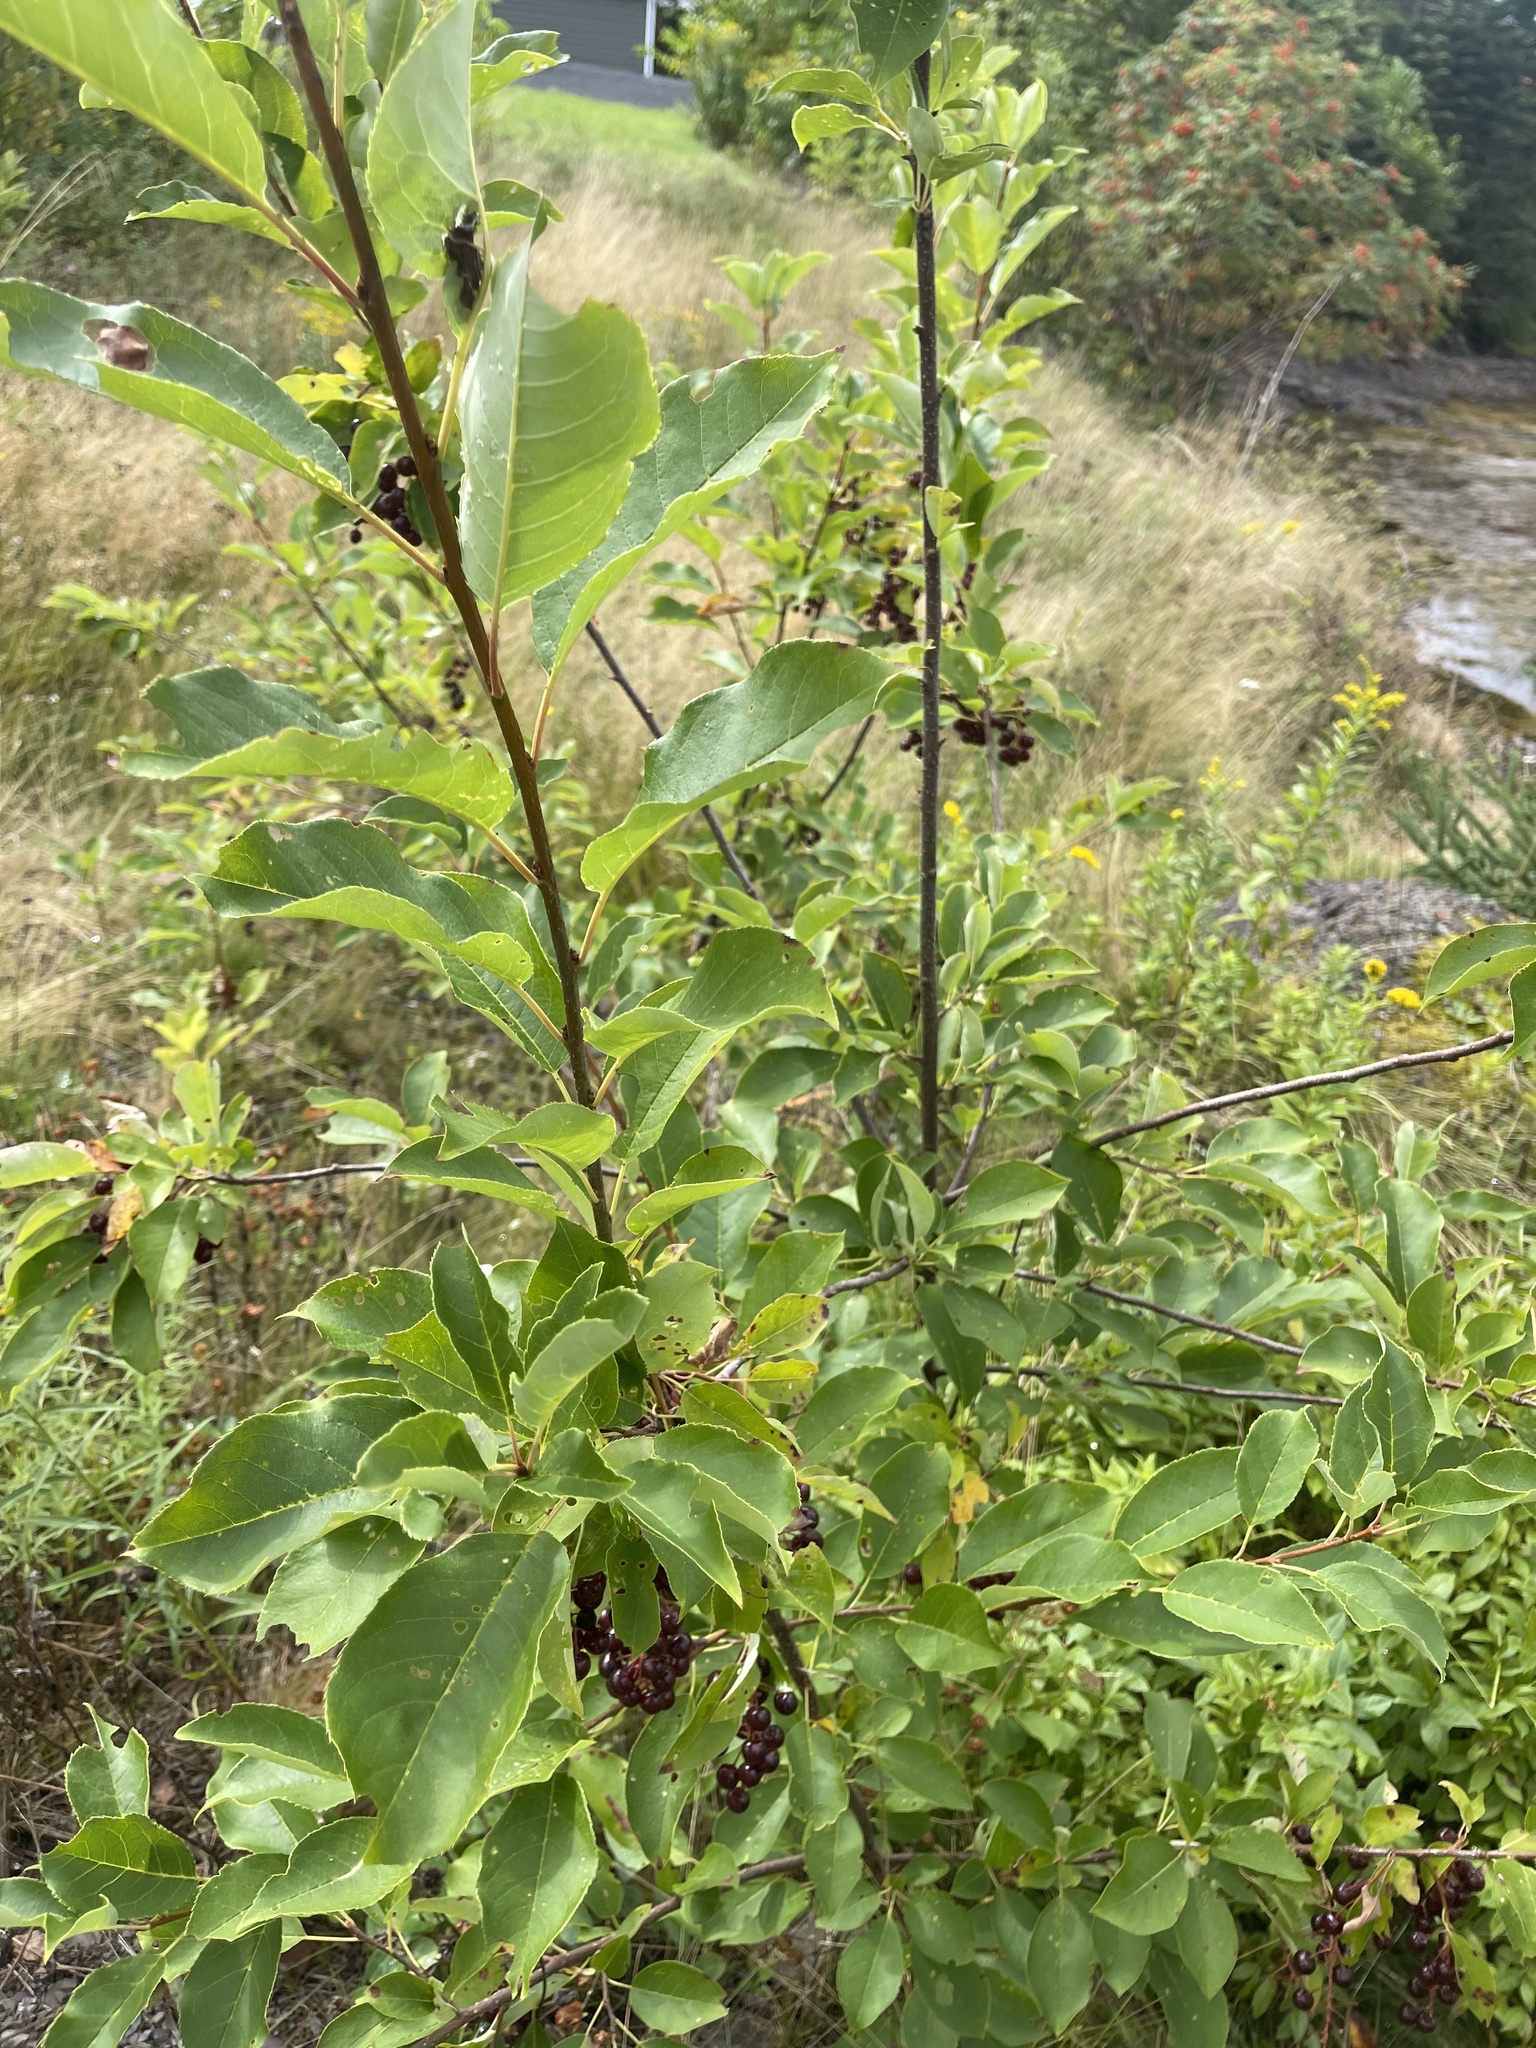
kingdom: Plantae
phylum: Tracheophyta
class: Magnoliopsida
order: Rosales
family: Rosaceae
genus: Prunus
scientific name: Prunus virginiana
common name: Chokecherry
